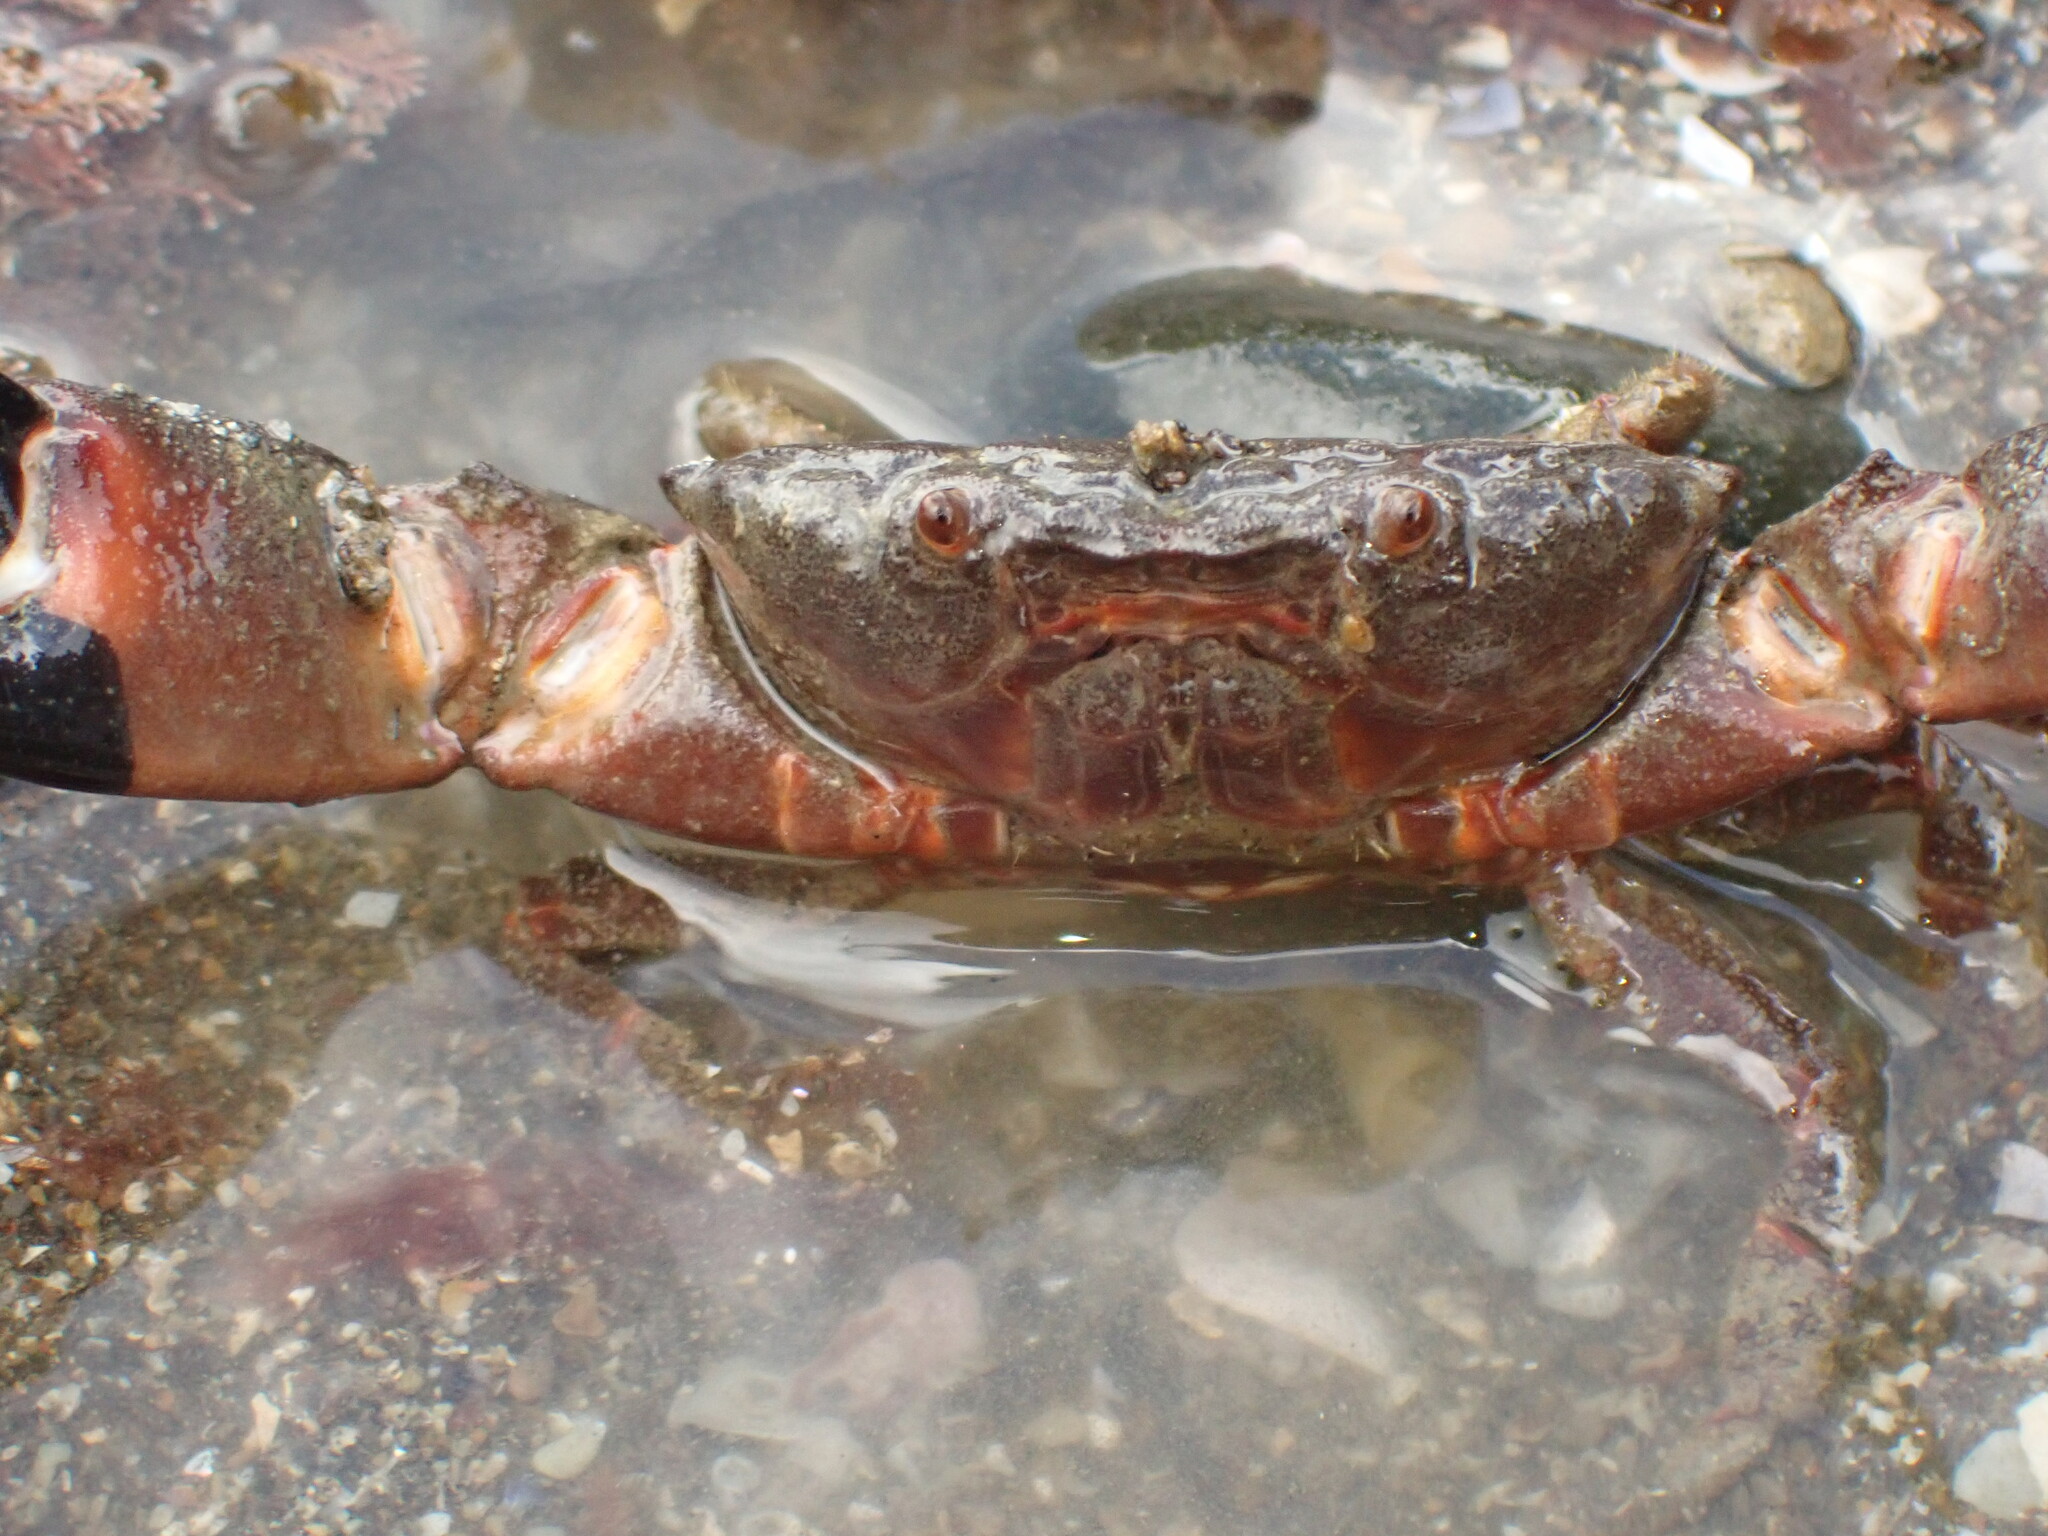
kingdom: Animalia
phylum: Arthropoda
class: Malacostraca
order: Decapoda
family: Oziidae
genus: Ozius
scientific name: Ozius deplanatus
